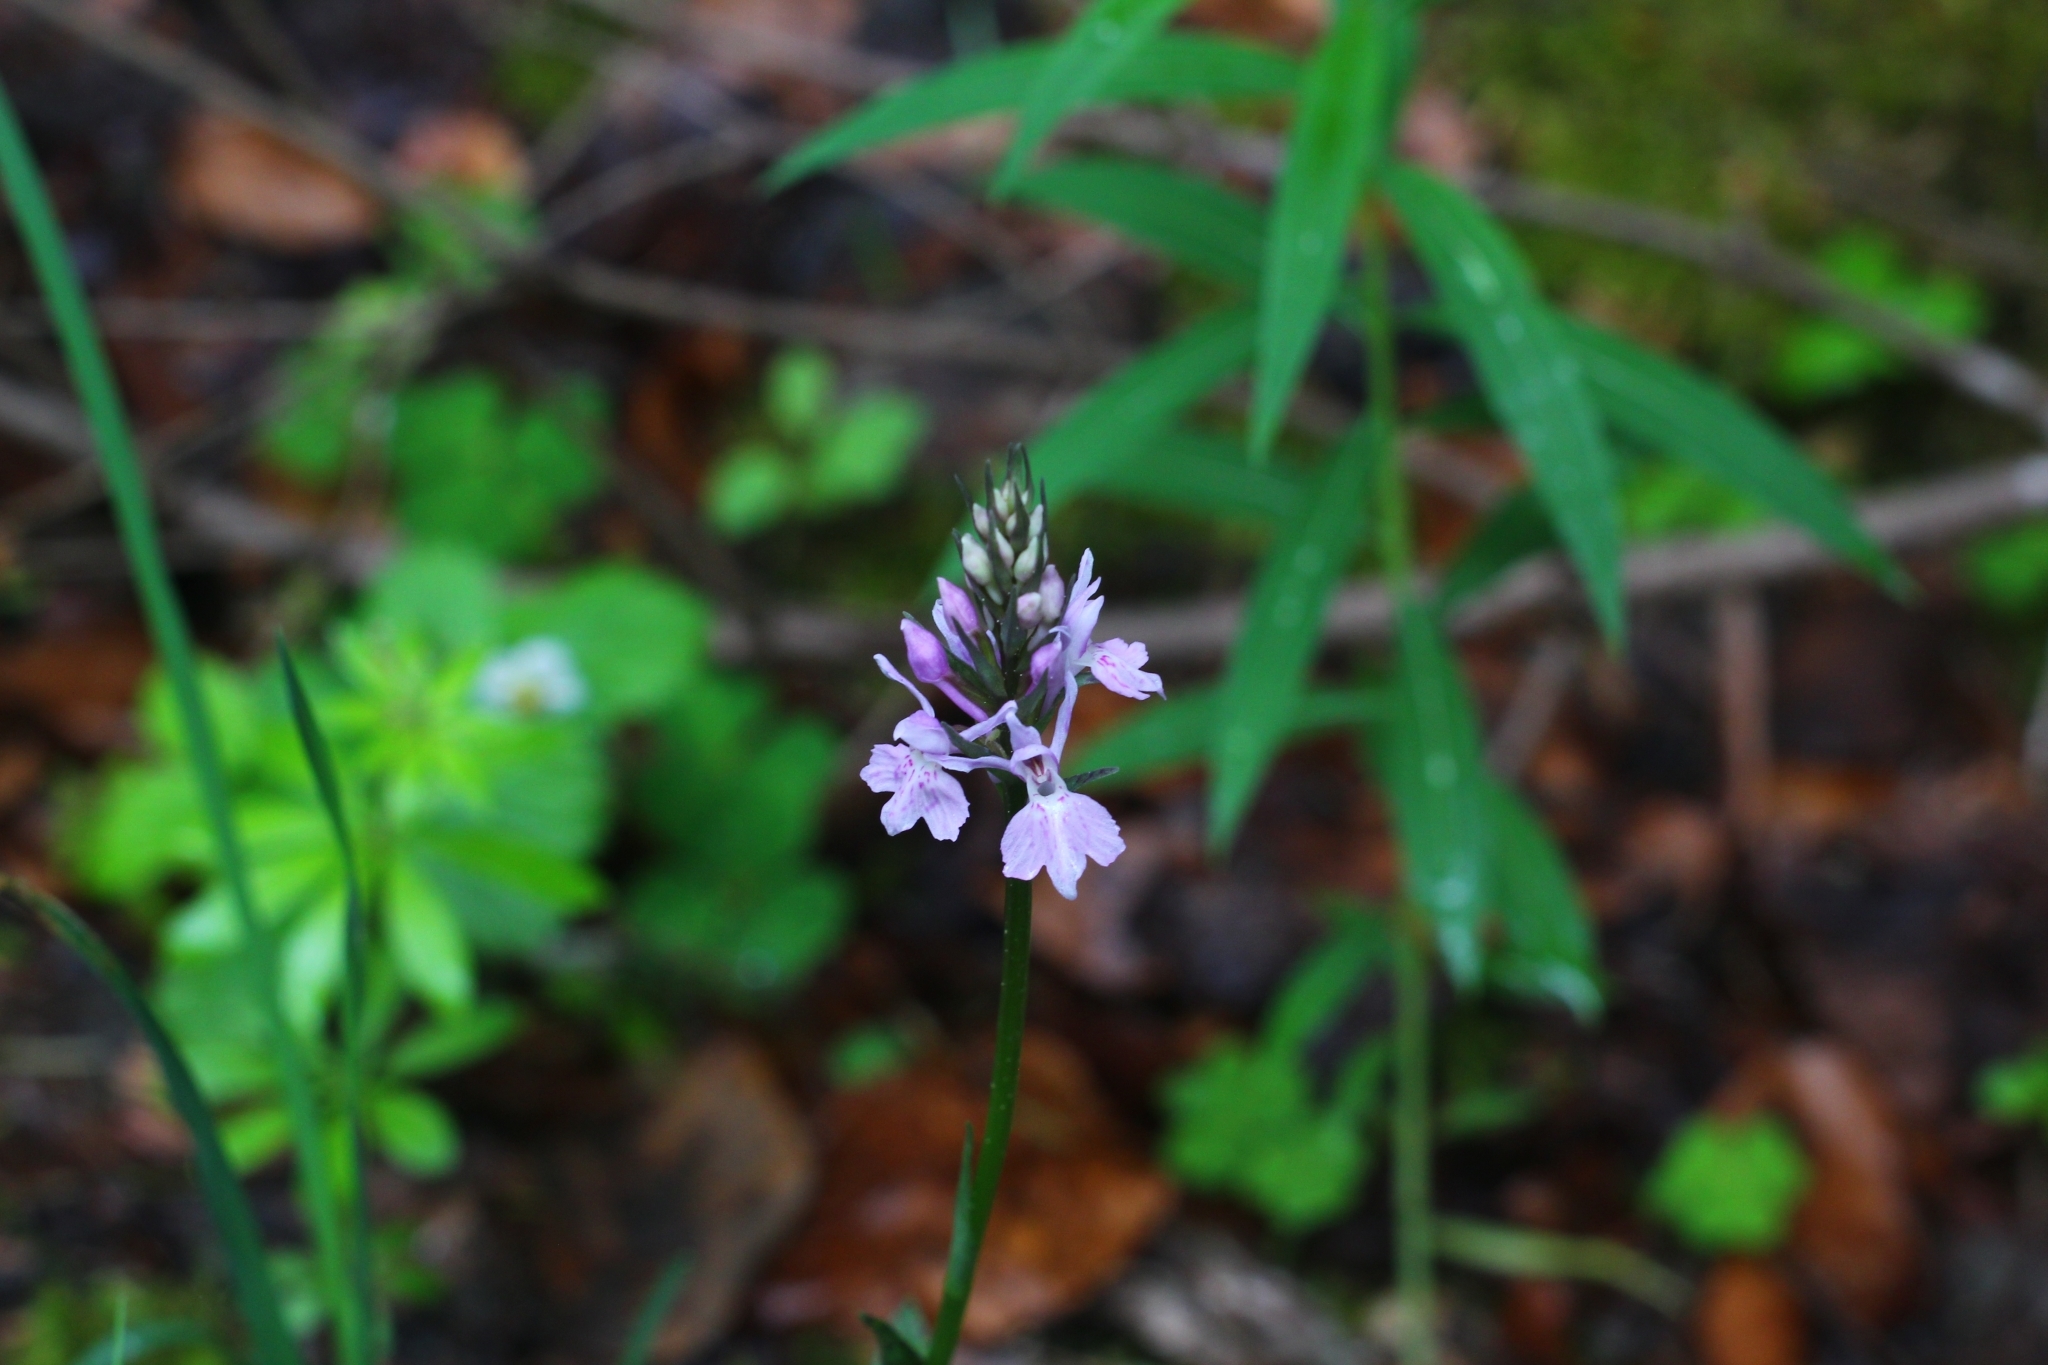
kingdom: Plantae
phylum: Tracheophyta
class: Liliopsida
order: Asparagales
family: Orchidaceae
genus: Dactylorhiza
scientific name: Dactylorhiza maculata
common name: Heath spotted-orchid
